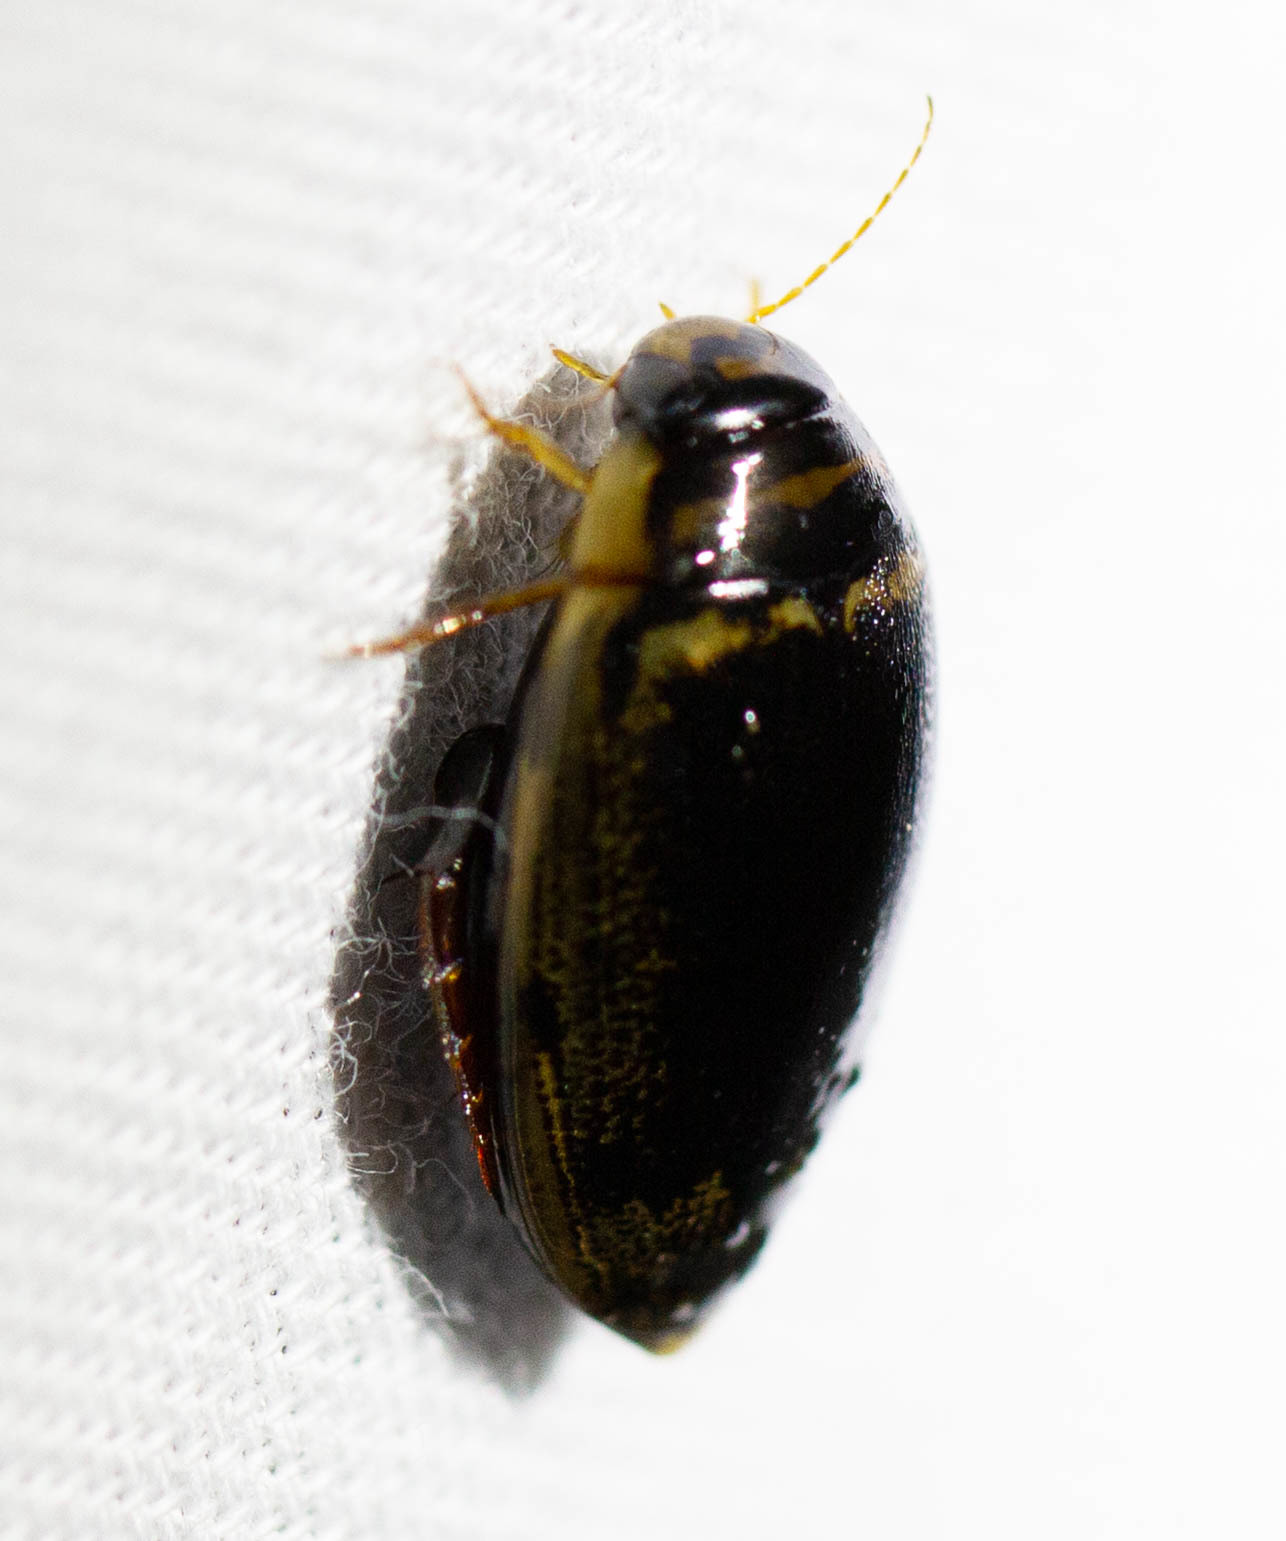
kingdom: Animalia
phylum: Arthropoda
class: Insecta
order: Coleoptera
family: Dytiscidae
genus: Thermonectus
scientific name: Thermonectus basillaris
